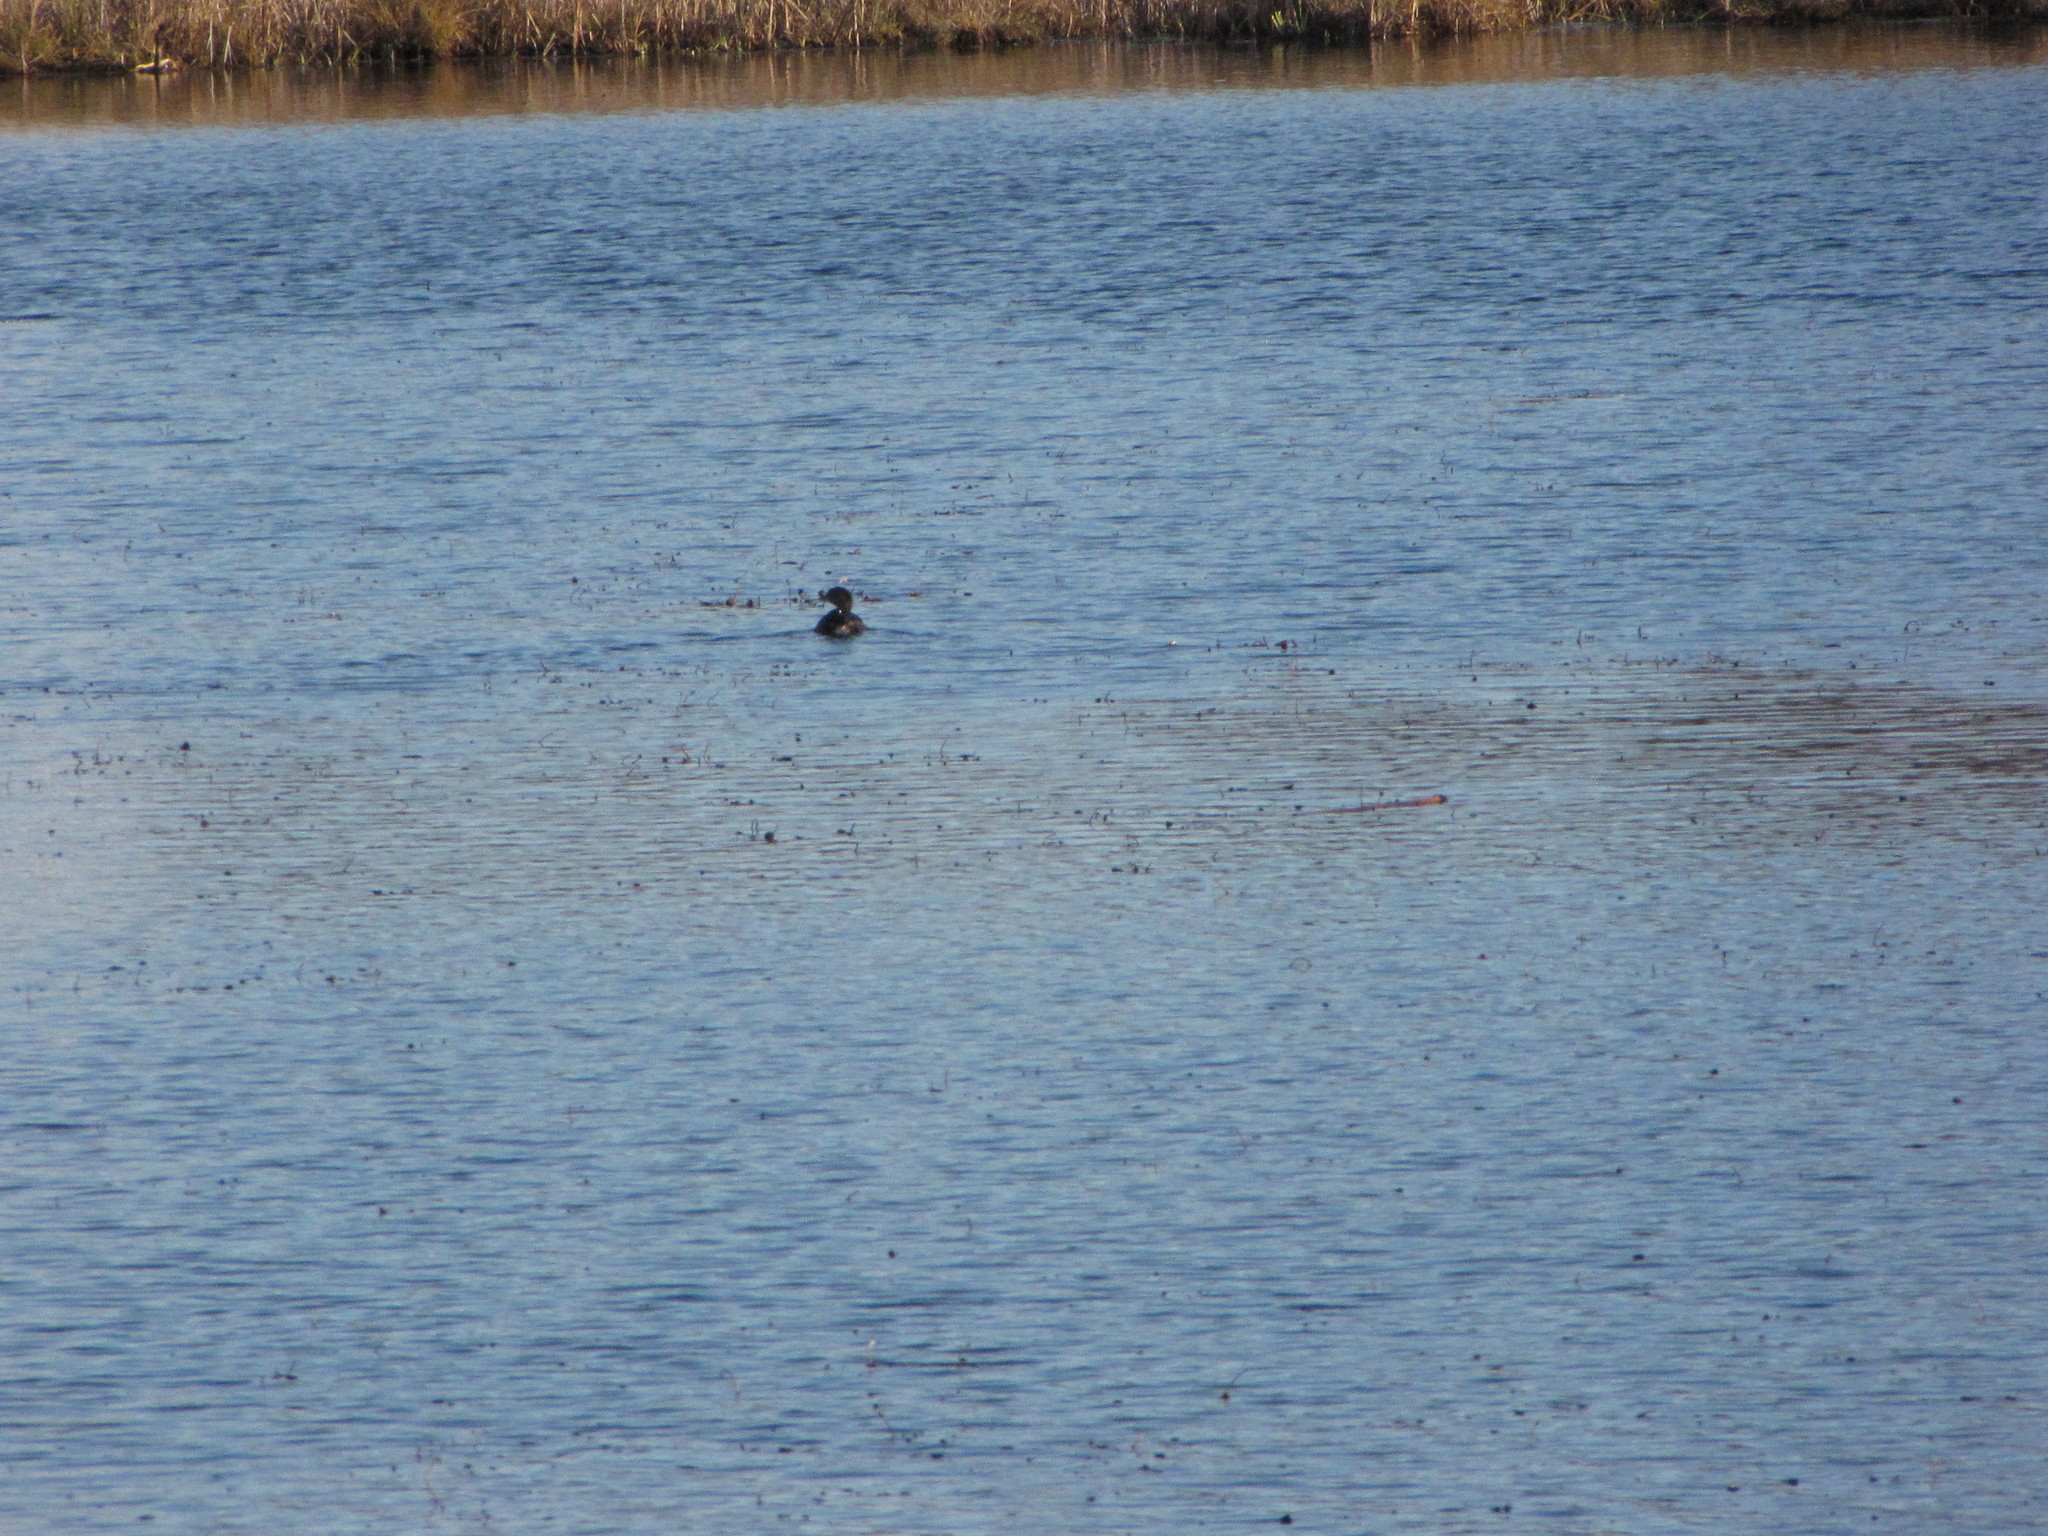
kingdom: Animalia
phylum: Chordata
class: Aves
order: Podicipediformes
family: Podicipedidae
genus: Podilymbus
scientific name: Podilymbus podiceps
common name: Pied-billed grebe
